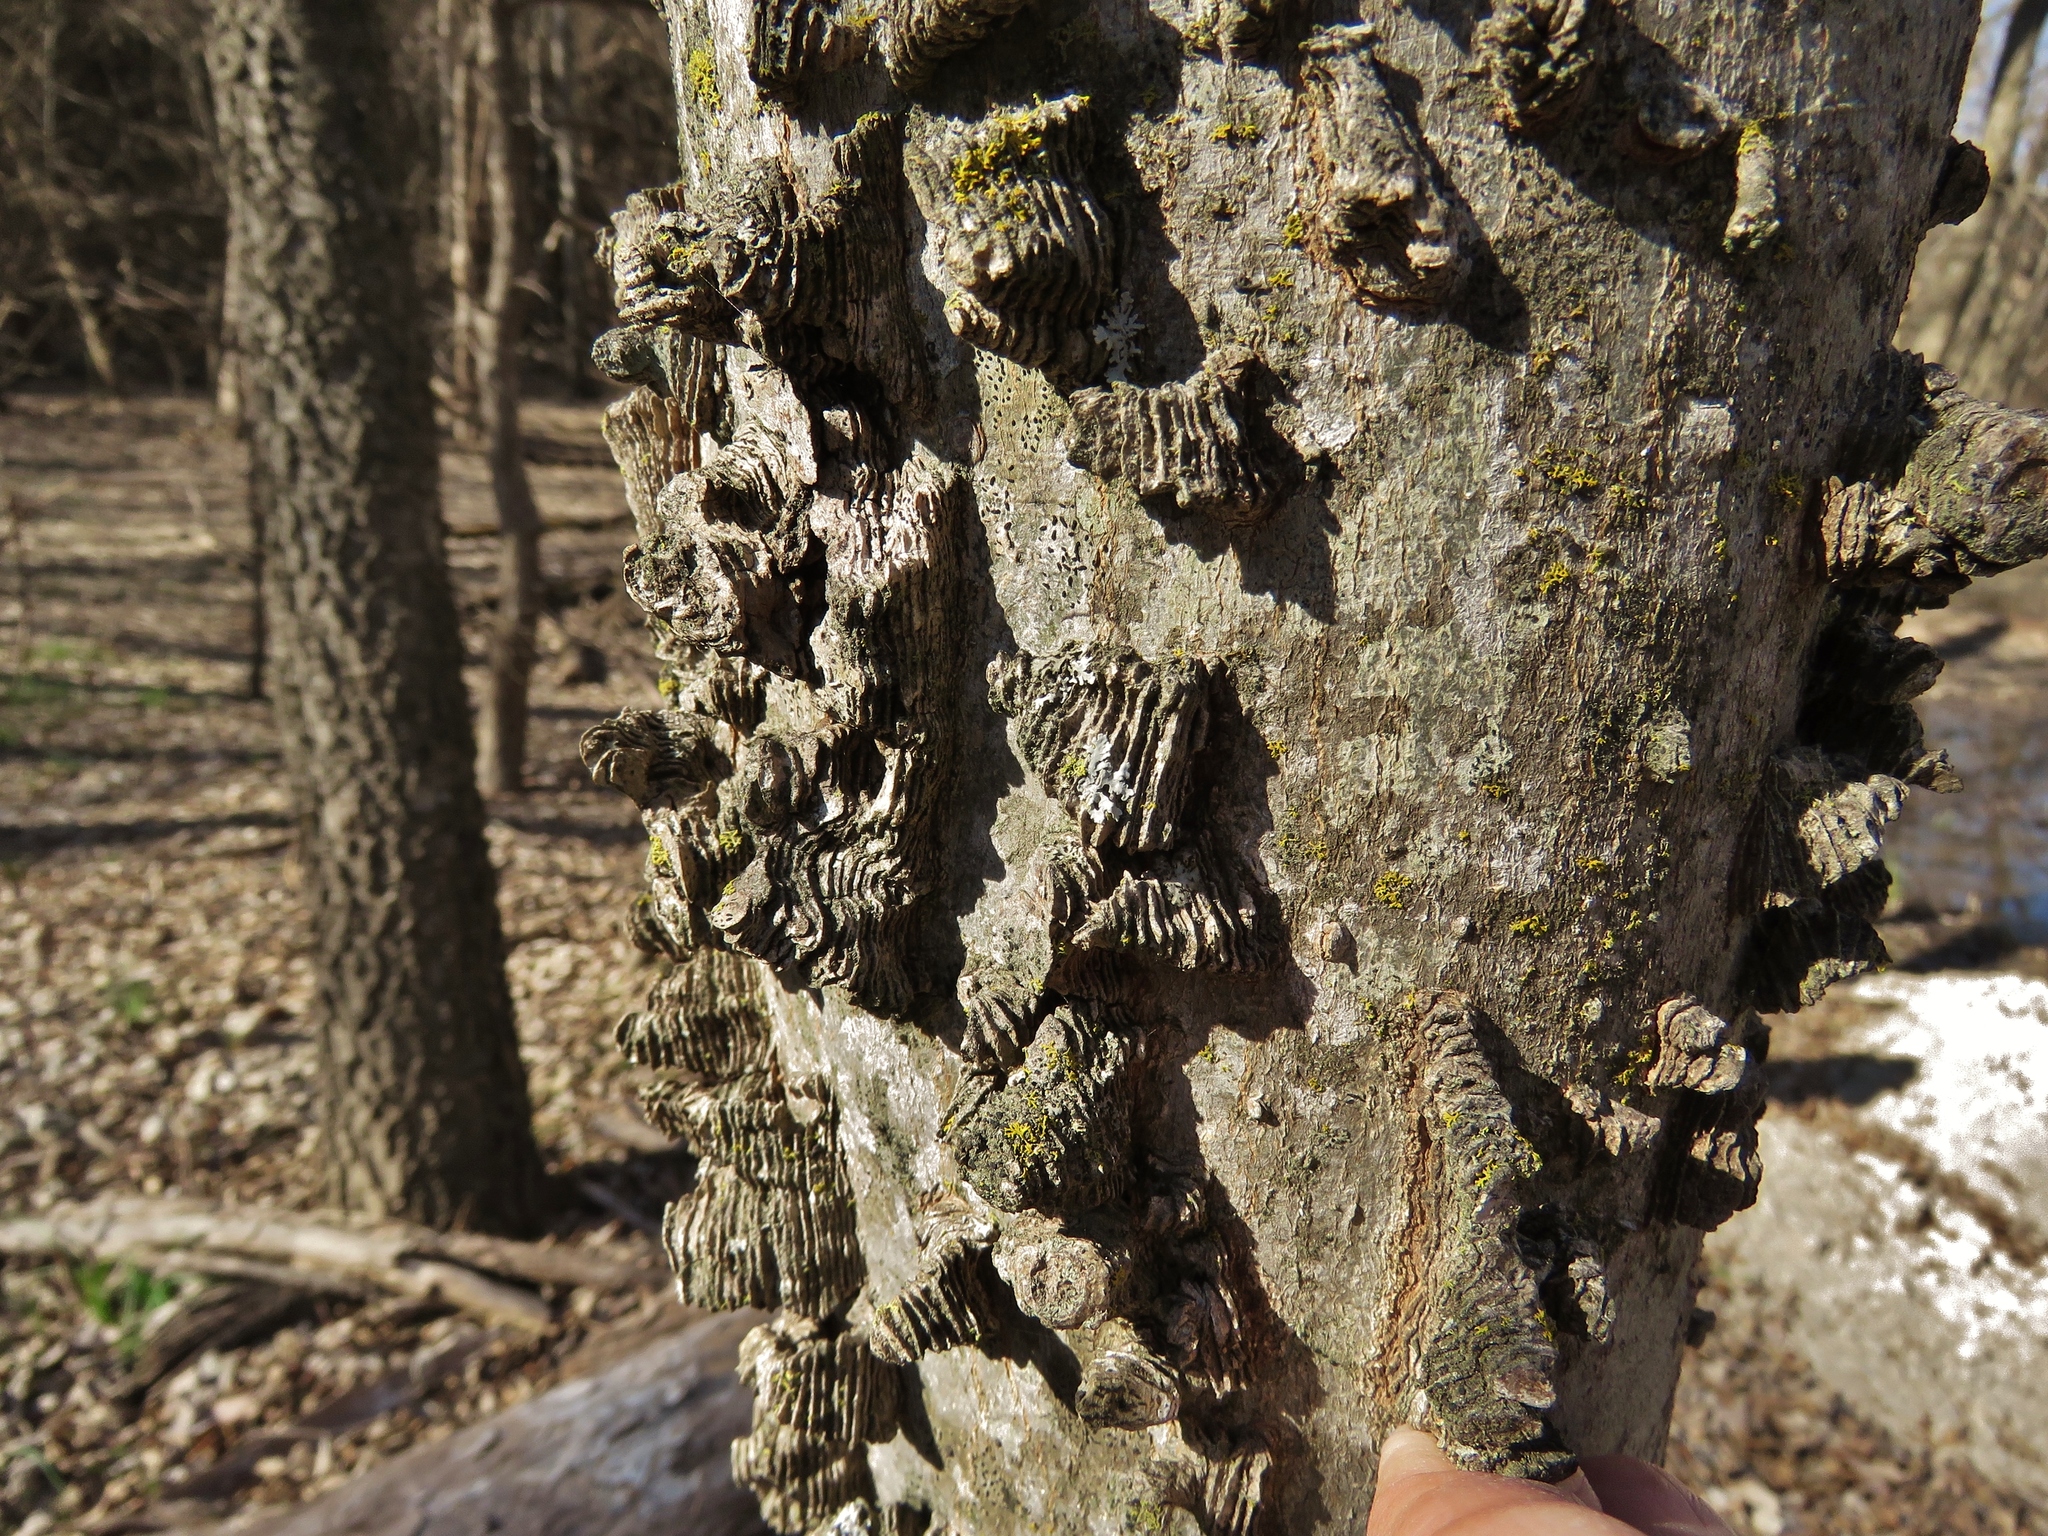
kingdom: Plantae
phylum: Tracheophyta
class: Magnoliopsida
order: Rosales
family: Cannabaceae
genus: Celtis
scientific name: Celtis laevigata
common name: Sugarberry
